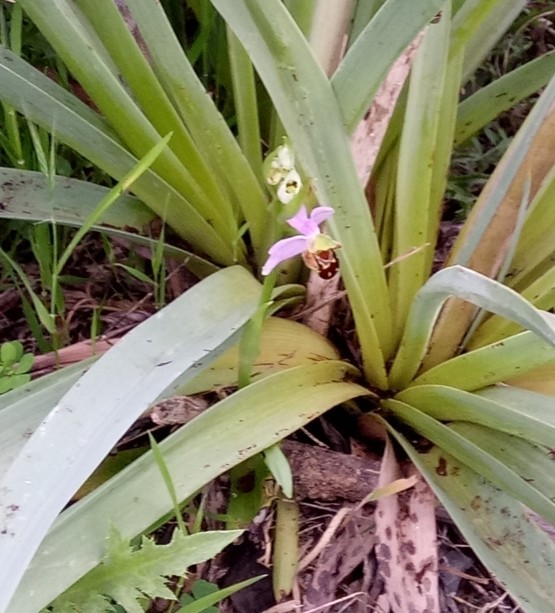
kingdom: Plantae
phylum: Tracheophyta
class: Liliopsida
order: Asparagales
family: Orchidaceae
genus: Ophrys
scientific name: Ophrys apifera
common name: Bee orchid
